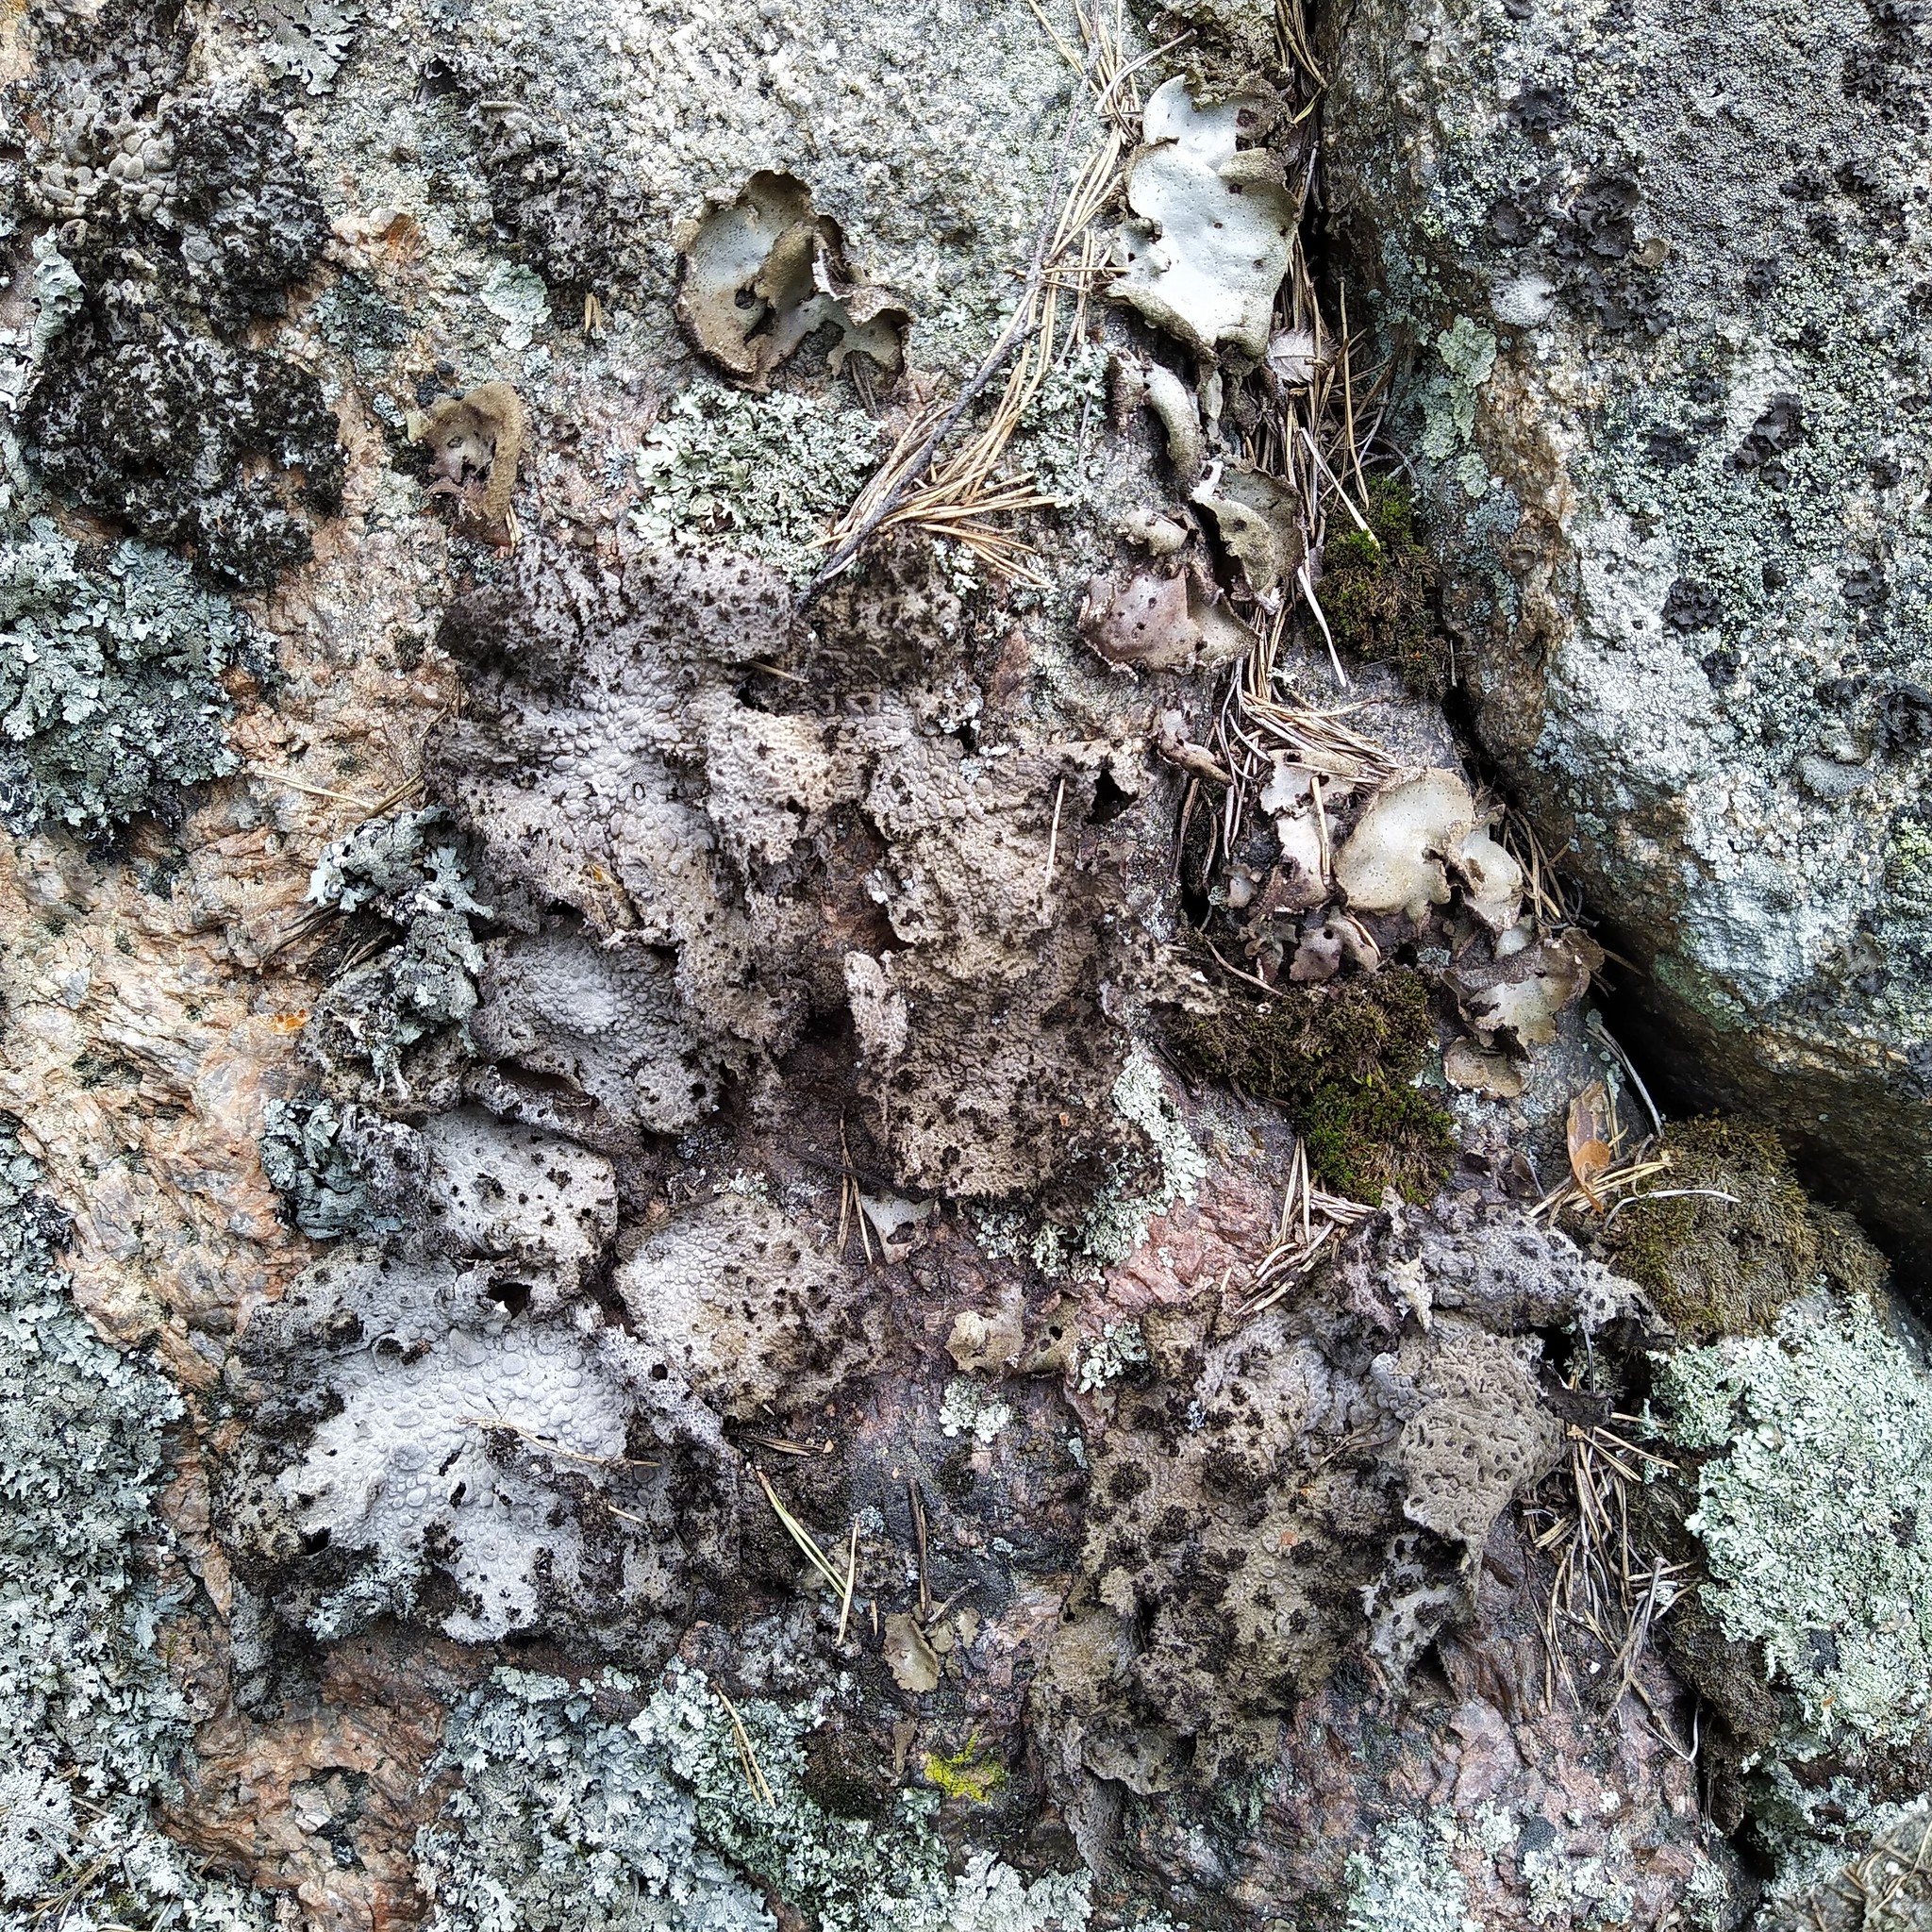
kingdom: Fungi
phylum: Ascomycota
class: Lecanoromycetes
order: Umbilicariales
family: Umbilicariaceae
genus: Lasallia
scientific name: Lasallia pustulata
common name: Blistered toadskin lichen
